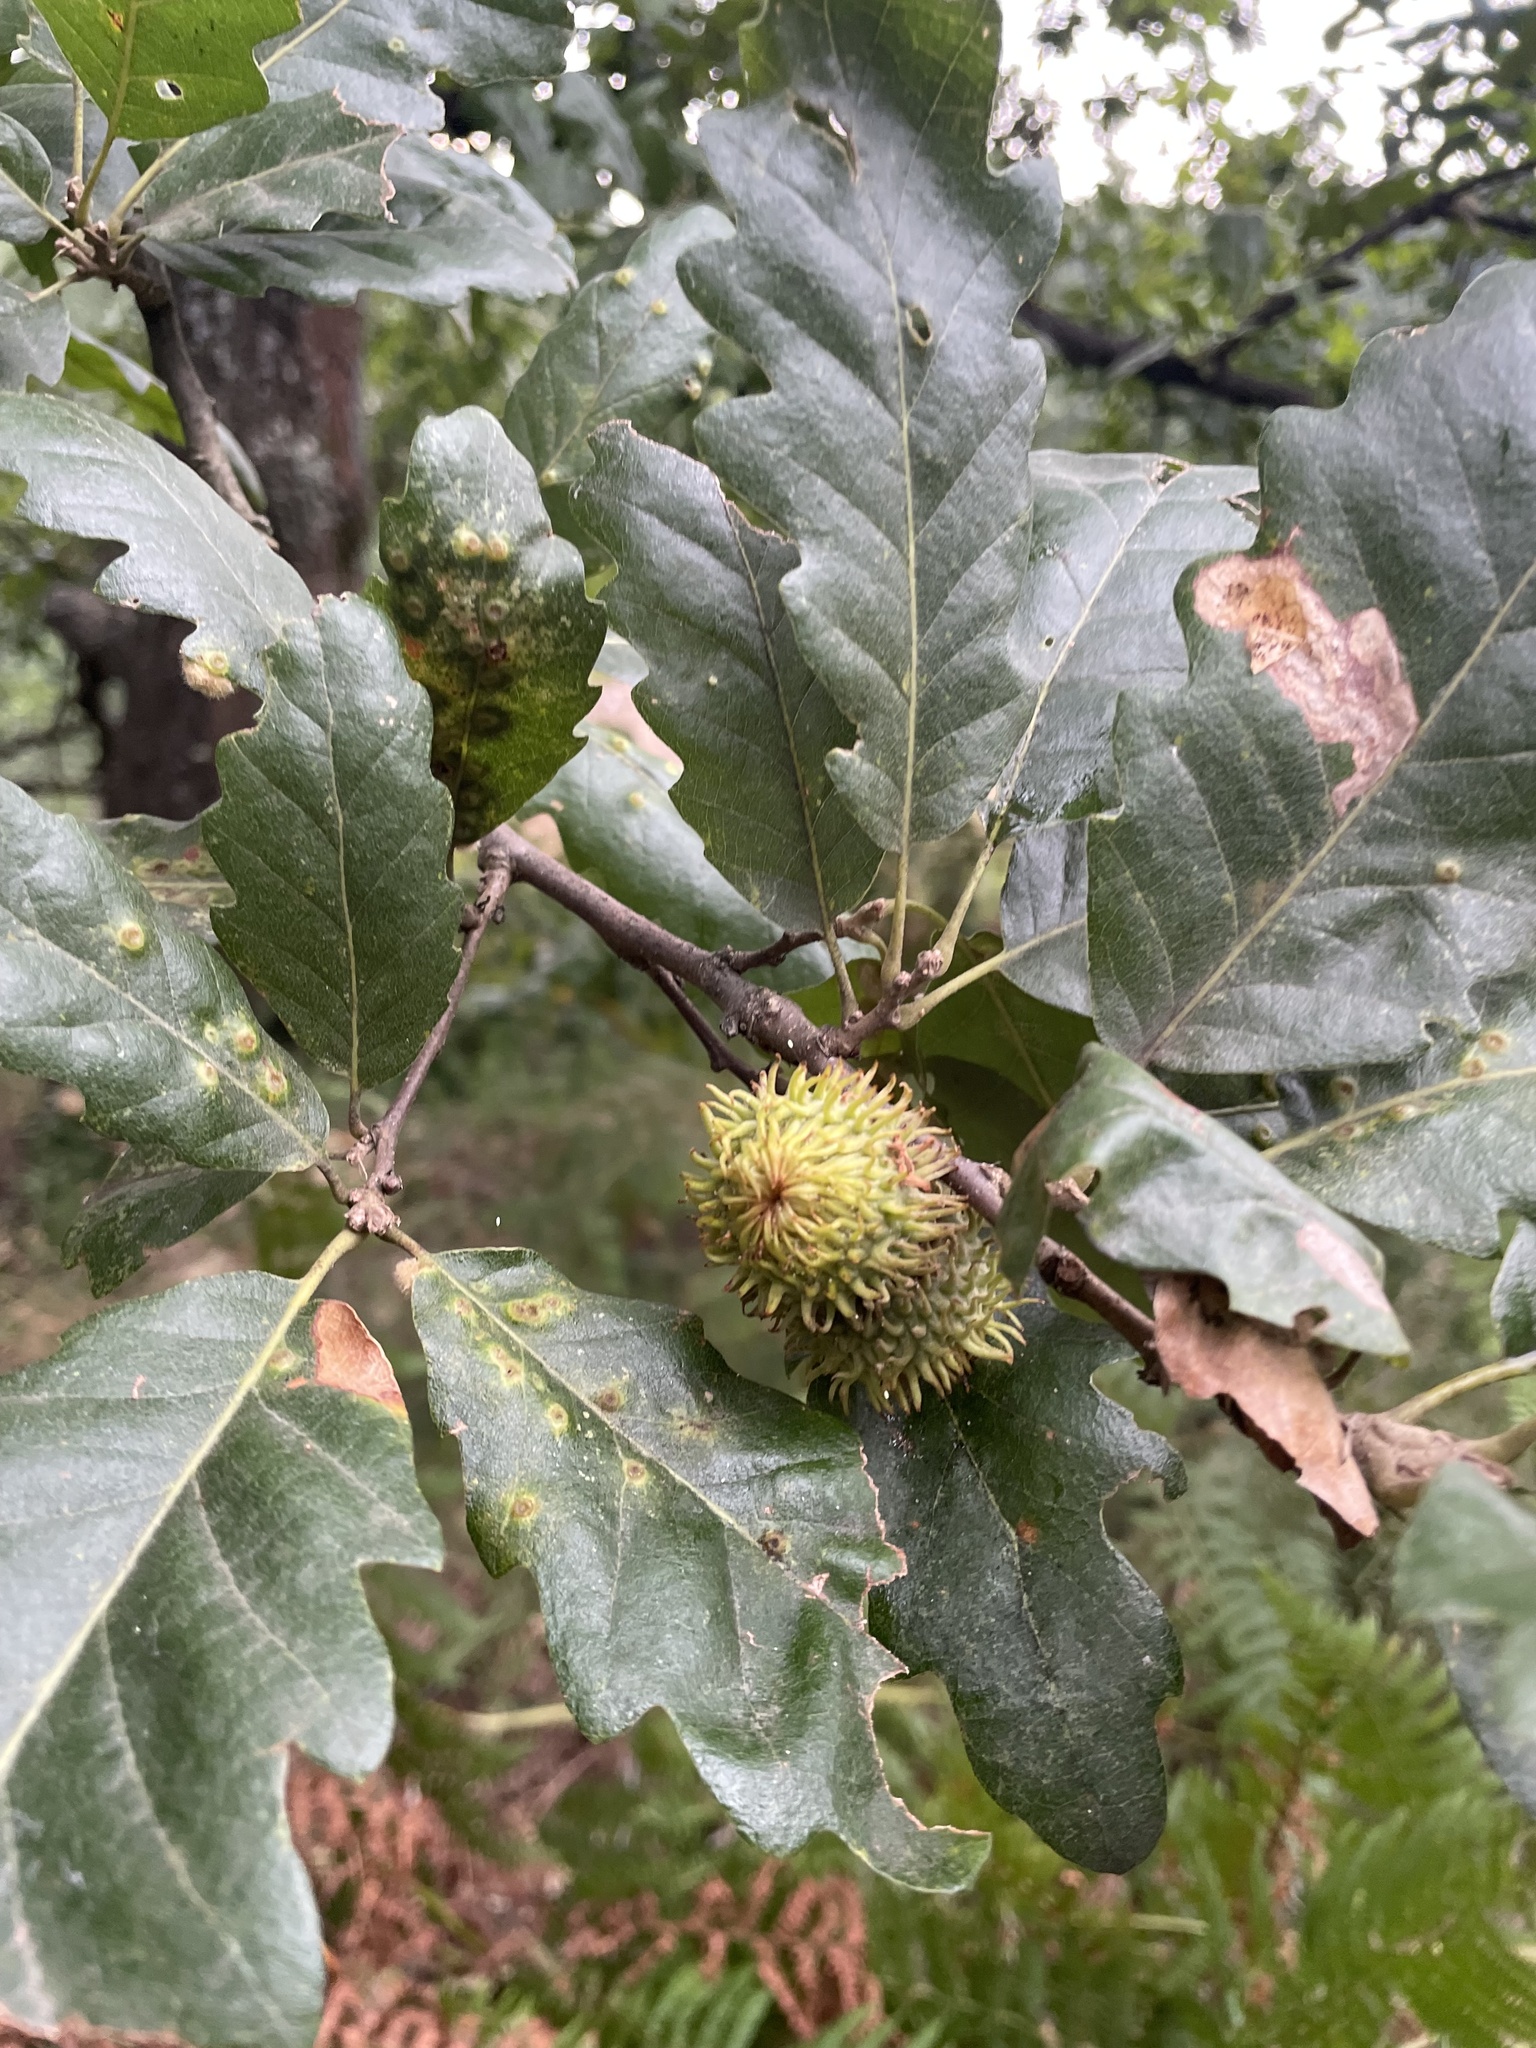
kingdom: Plantae
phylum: Tracheophyta
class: Magnoliopsida
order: Fagales
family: Fagaceae
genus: Quercus
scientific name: Quercus cerris
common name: Turkey oak
